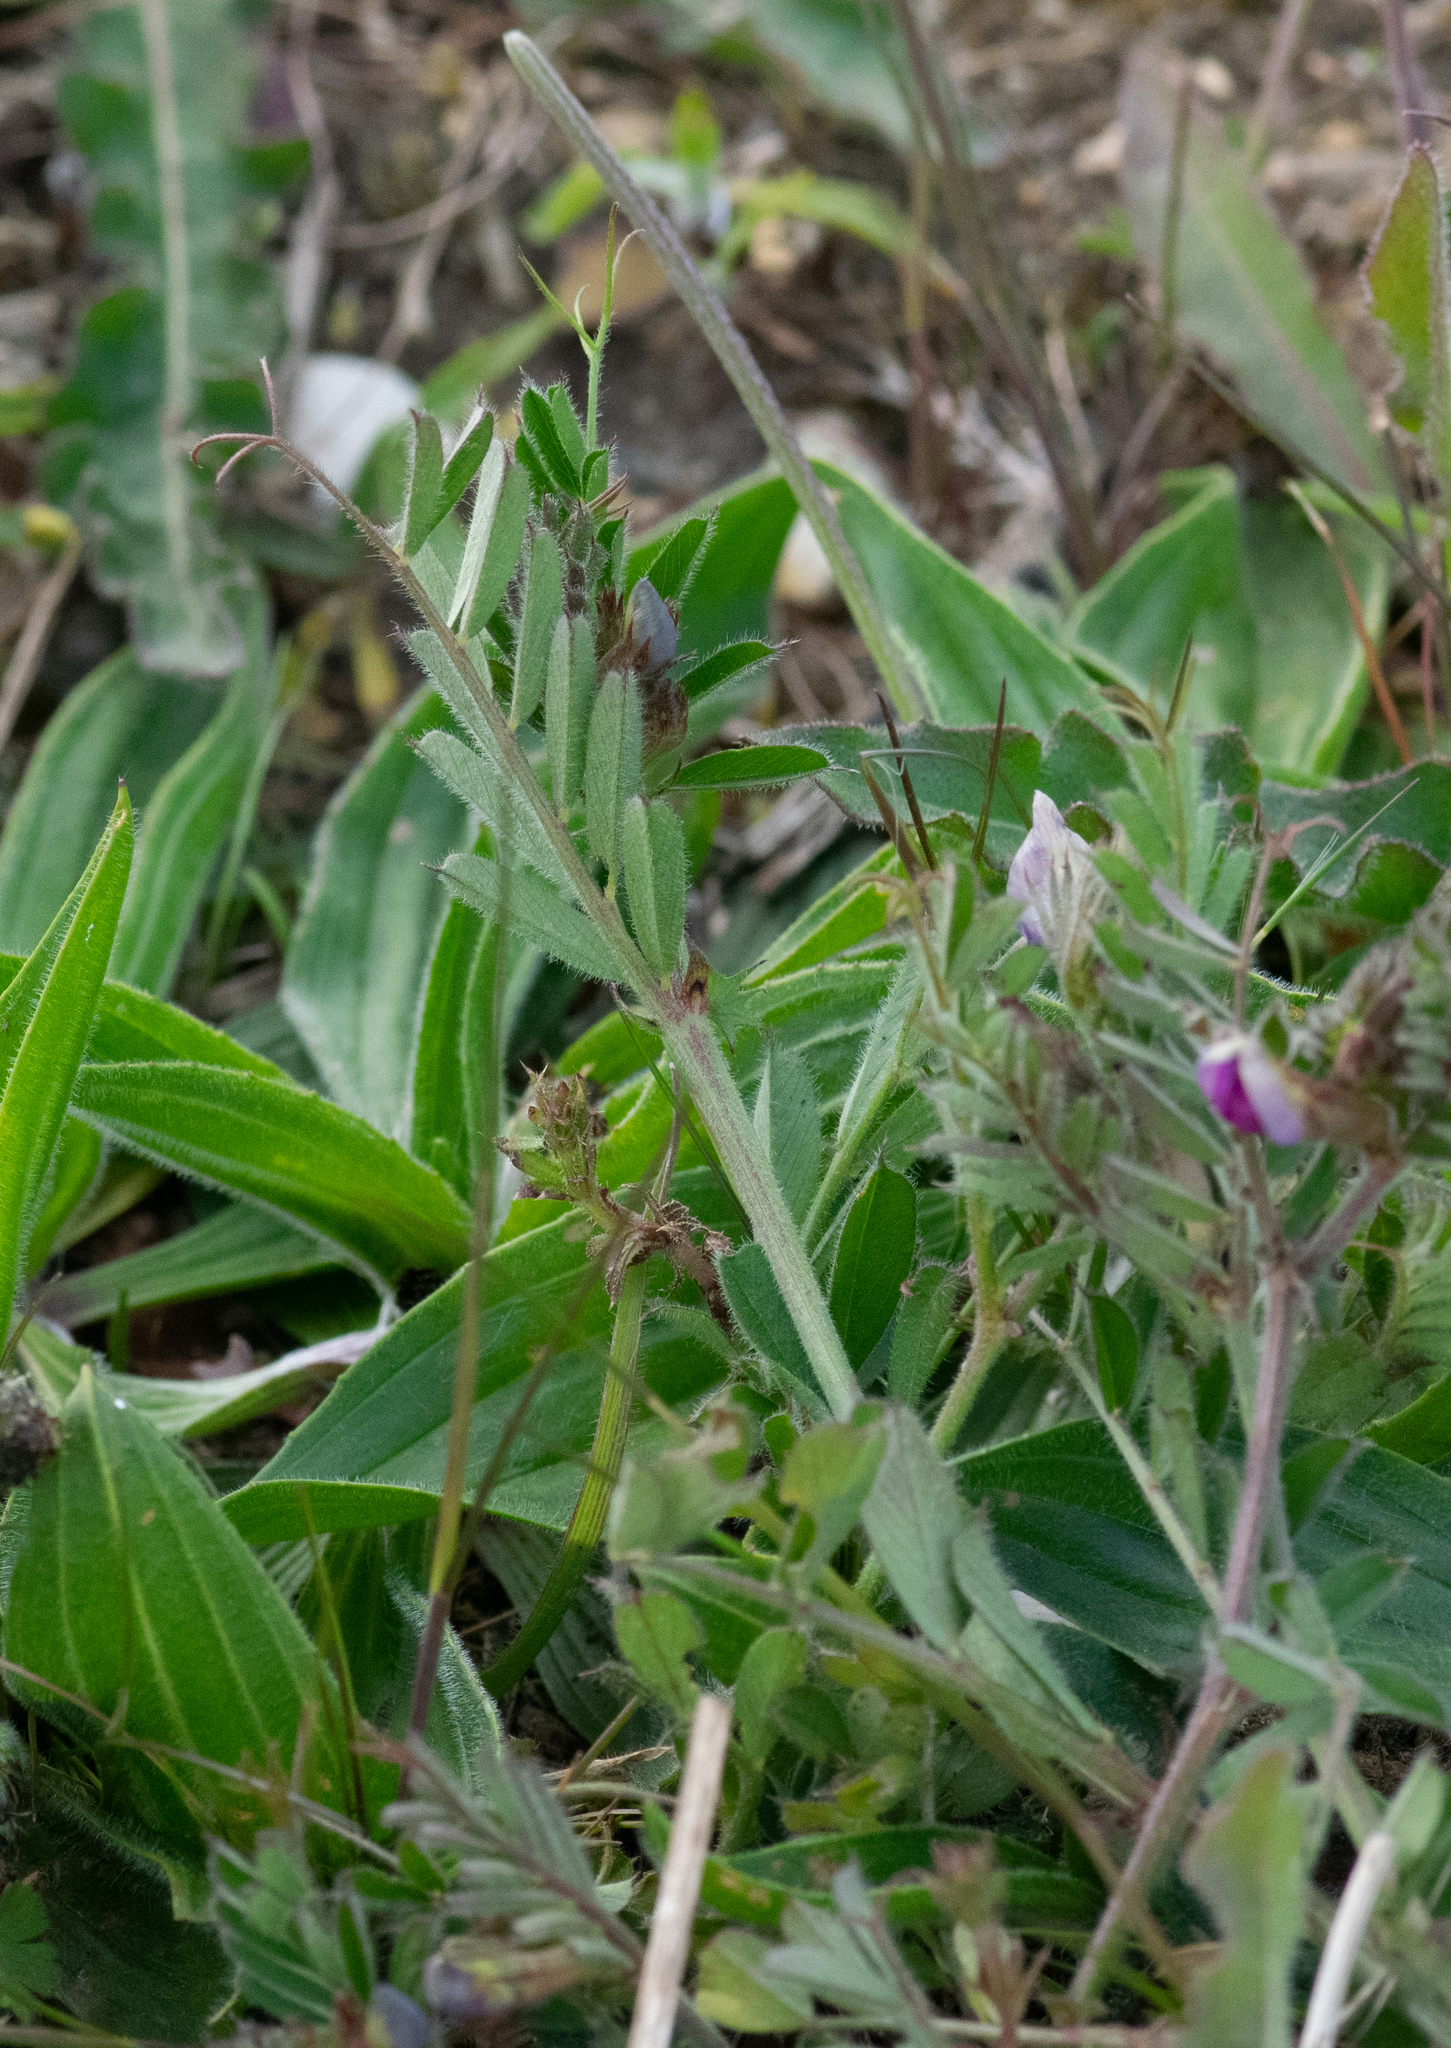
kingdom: Plantae
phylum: Tracheophyta
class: Magnoliopsida
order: Fabales
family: Fabaceae
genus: Vicia
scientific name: Vicia sativa
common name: Garden vetch
